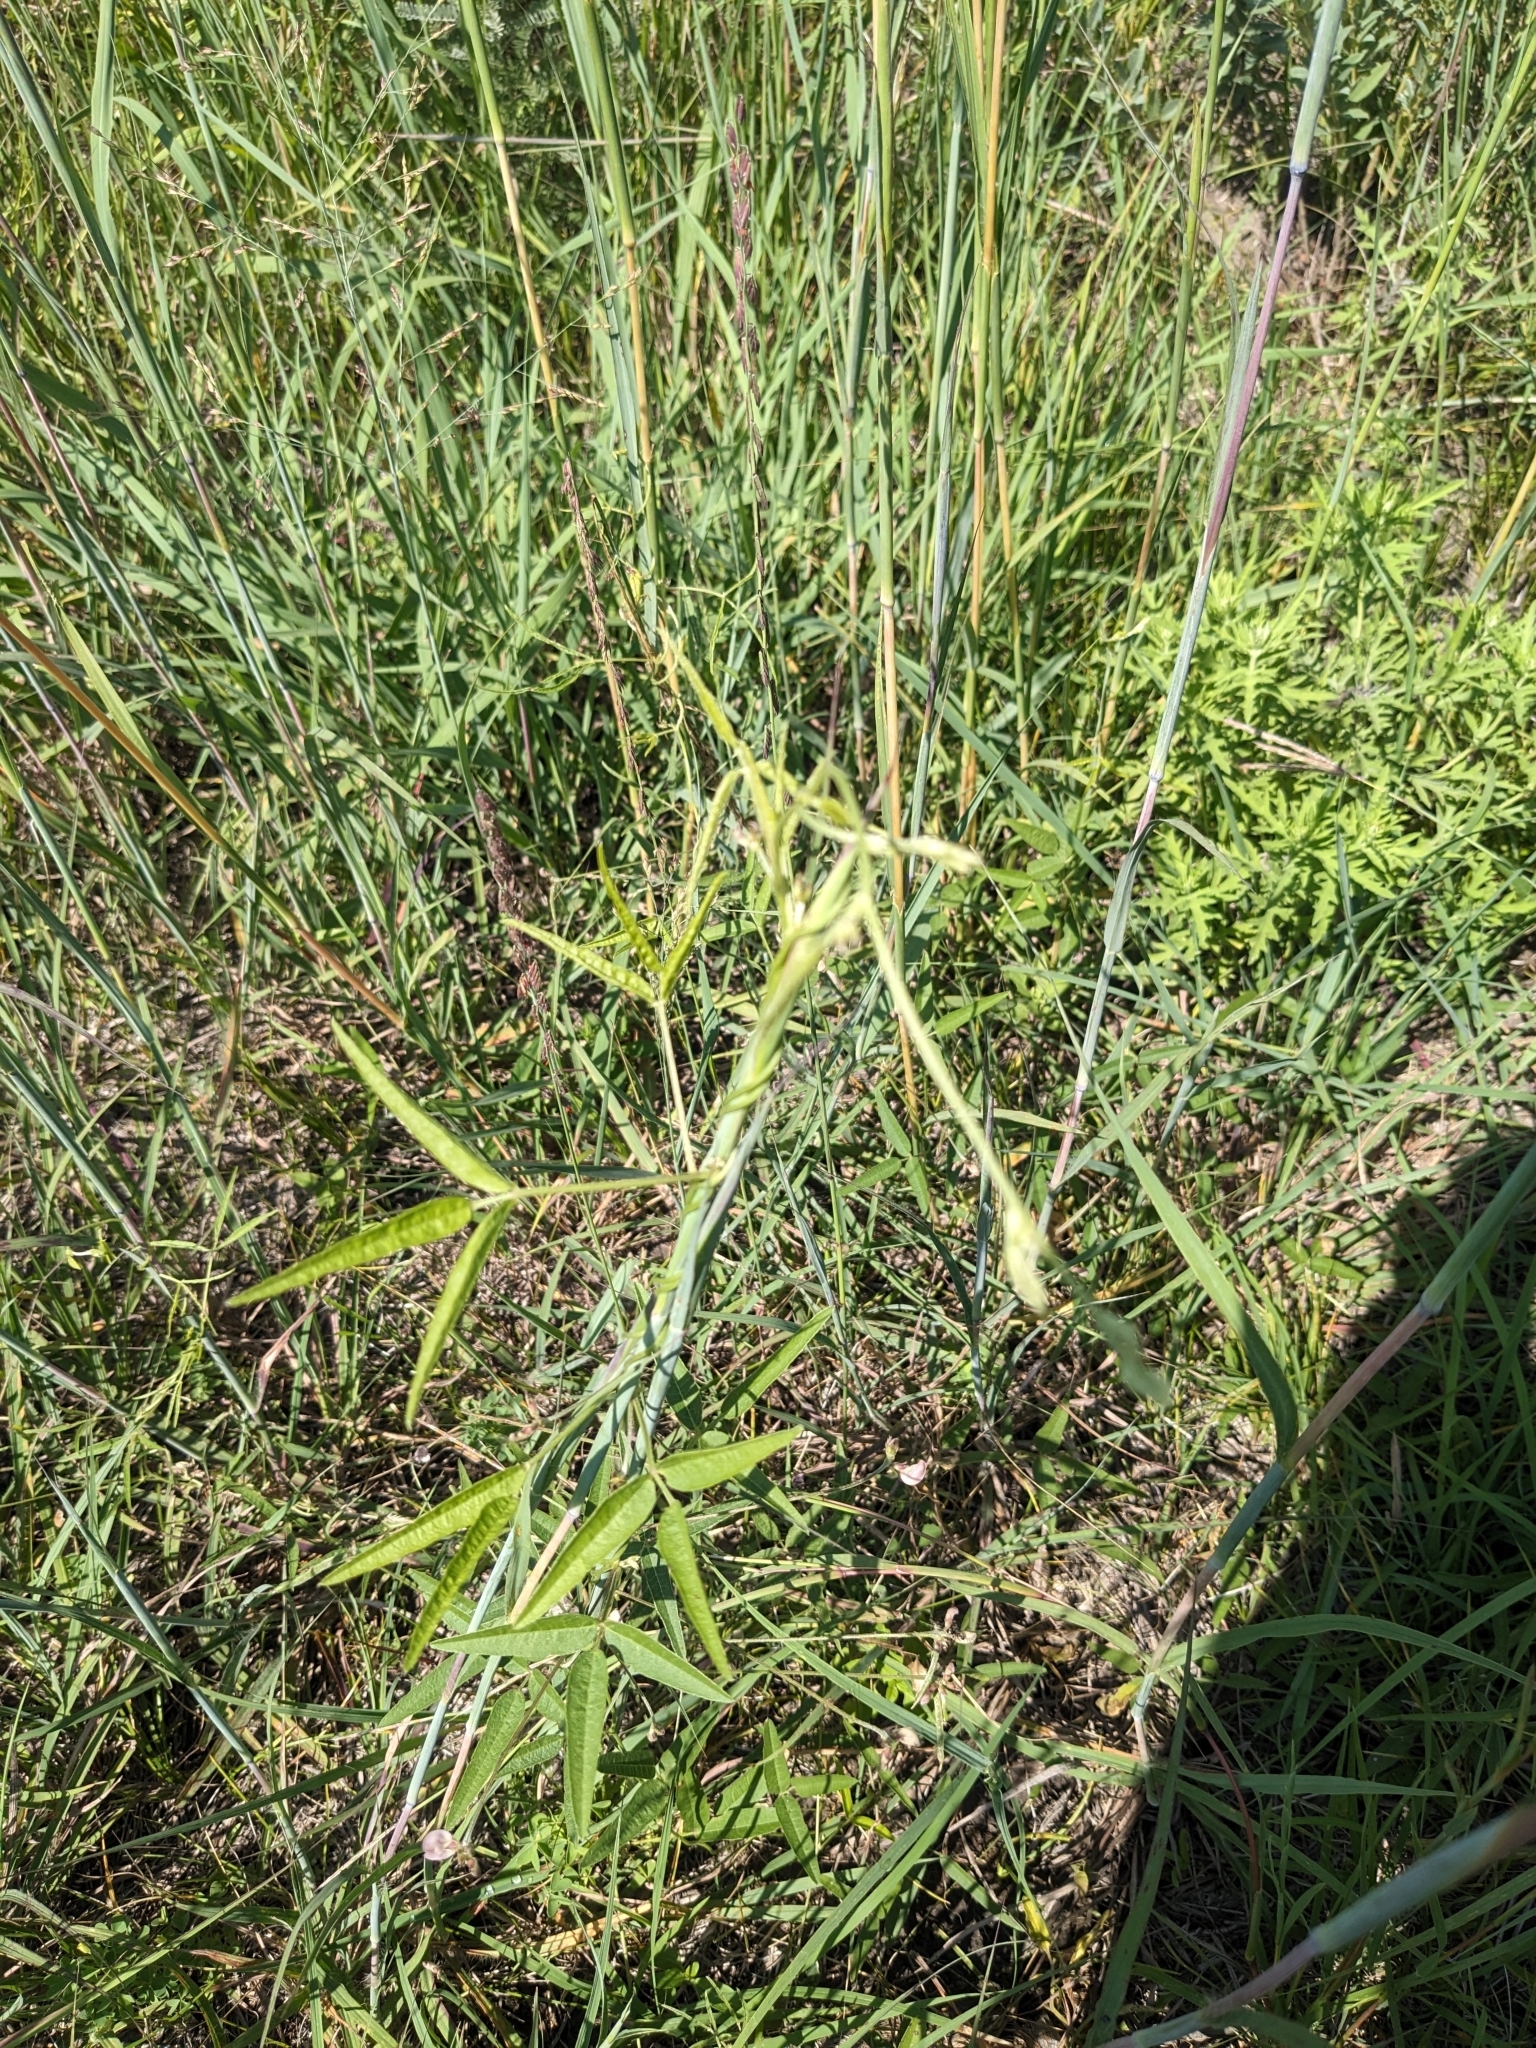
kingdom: Plantae
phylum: Tracheophyta
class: Magnoliopsida
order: Fabales
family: Fabaceae
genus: Strophostyles
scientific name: Strophostyles leiosperma
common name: Smooth-seed wild bean
